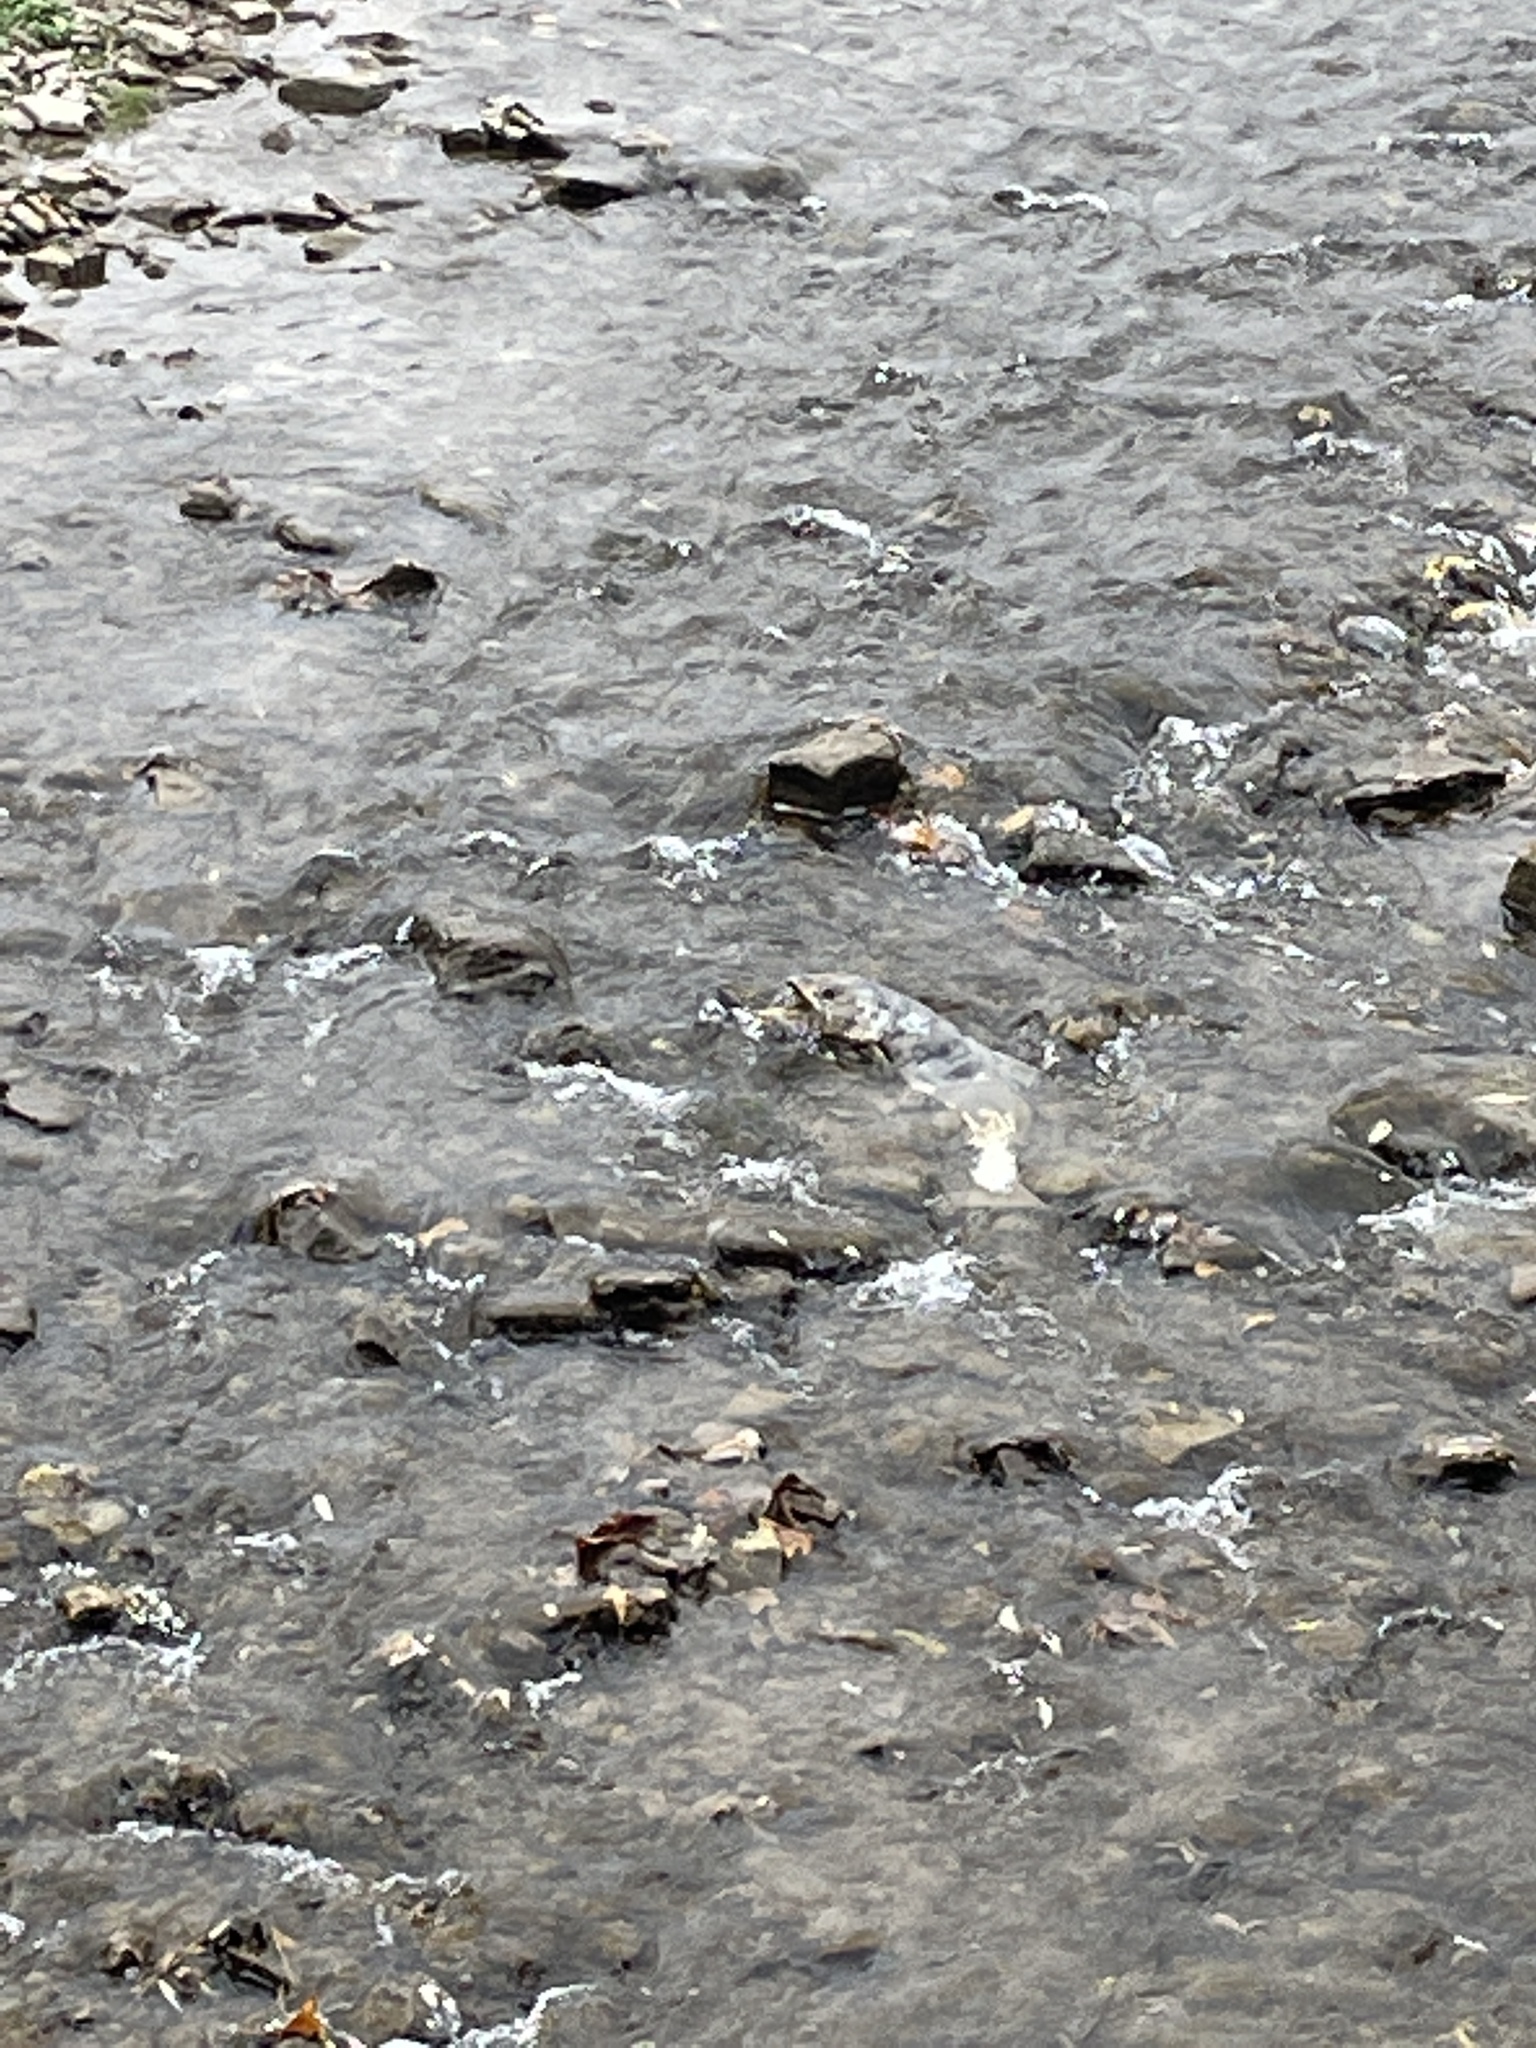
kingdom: Animalia
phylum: Chordata
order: Salmoniformes
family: Salmonidae
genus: Oncorhynchus
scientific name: Oncorhynchus tshawytscha
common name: Chinook salmon
